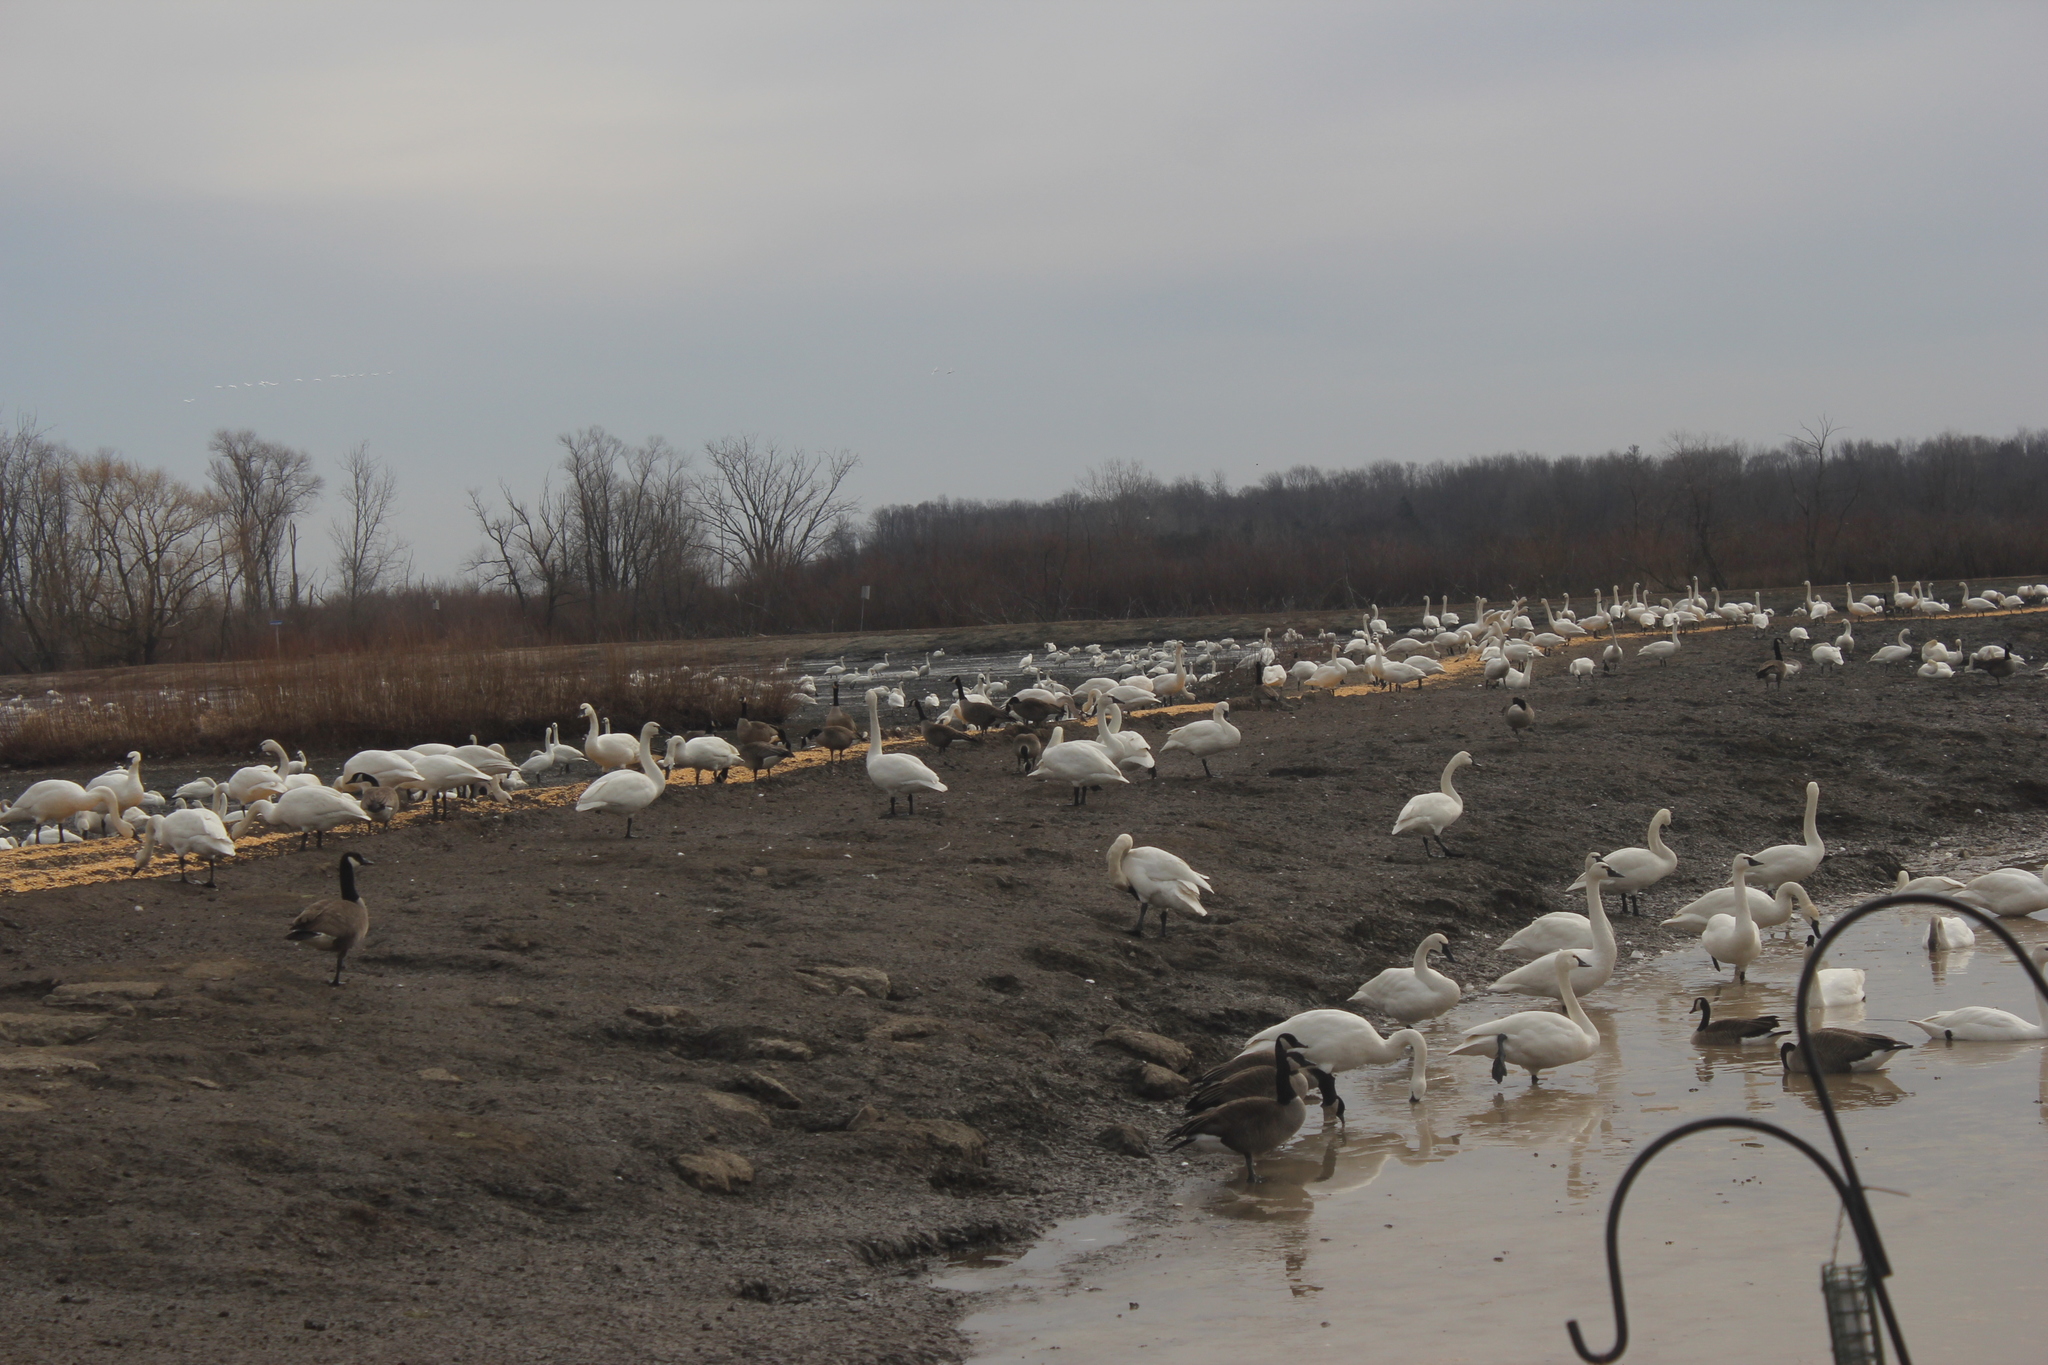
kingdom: Animalia
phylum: Chordata
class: Aves
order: Anseriformes
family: Anatidae
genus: Cygnus
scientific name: Cygnus columbianus
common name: Tundra swan
